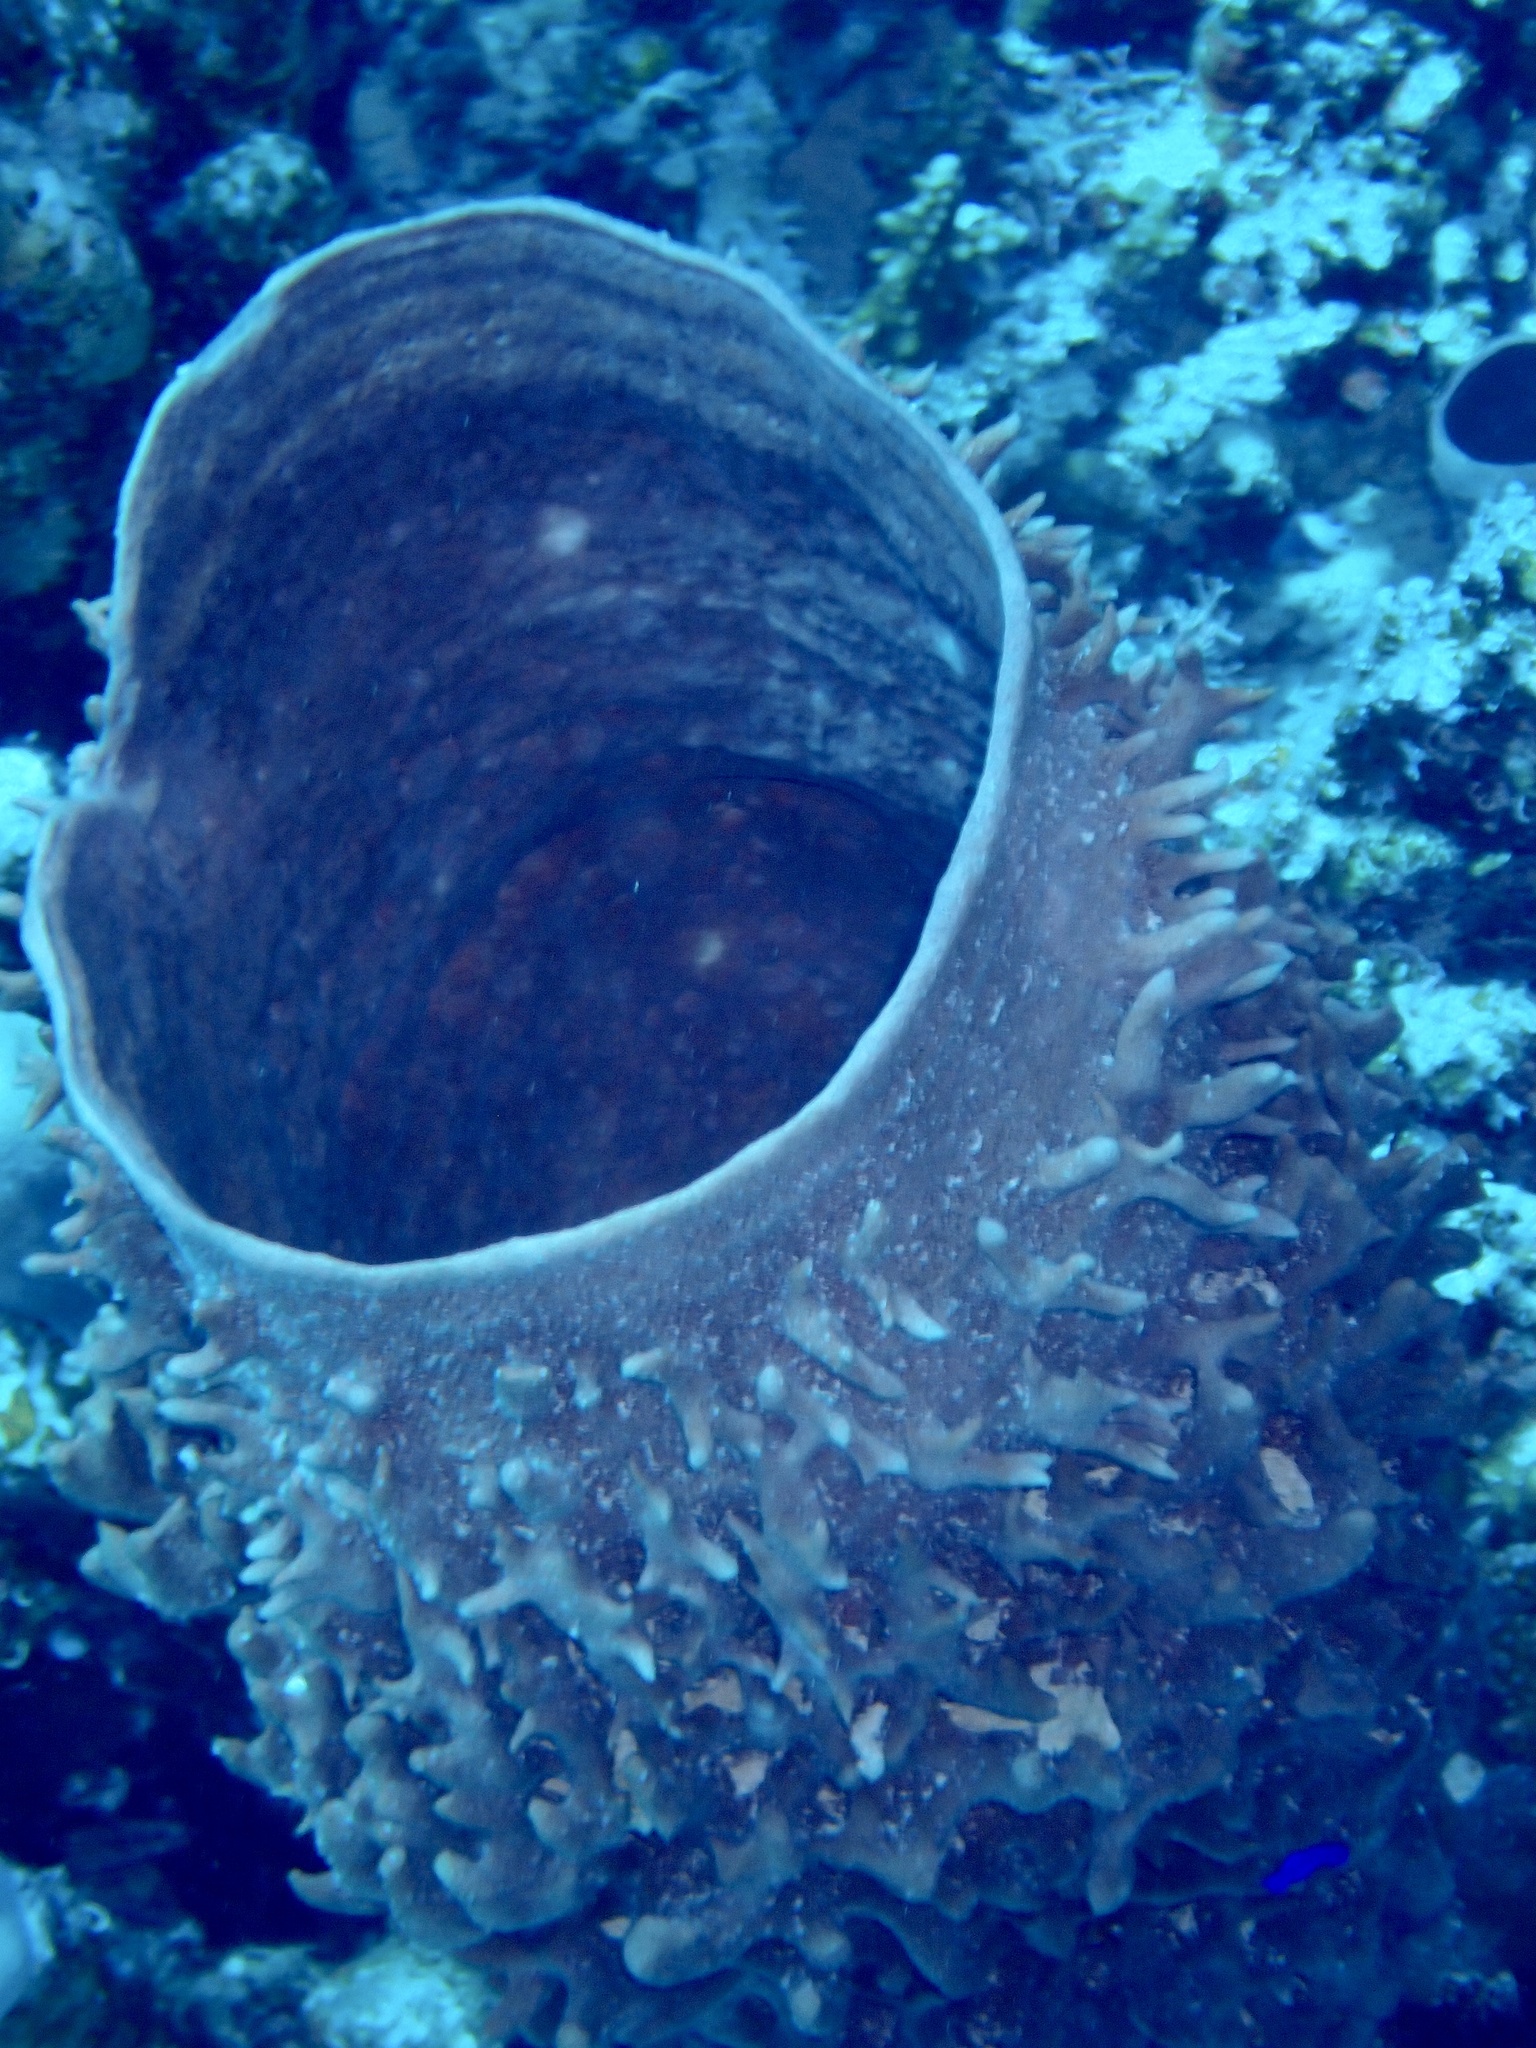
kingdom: Animalia
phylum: Porifera
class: Demospongiae
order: Haplosclerida
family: Callyspongiidae
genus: Callyspongia
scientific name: Callyspongia crassa
